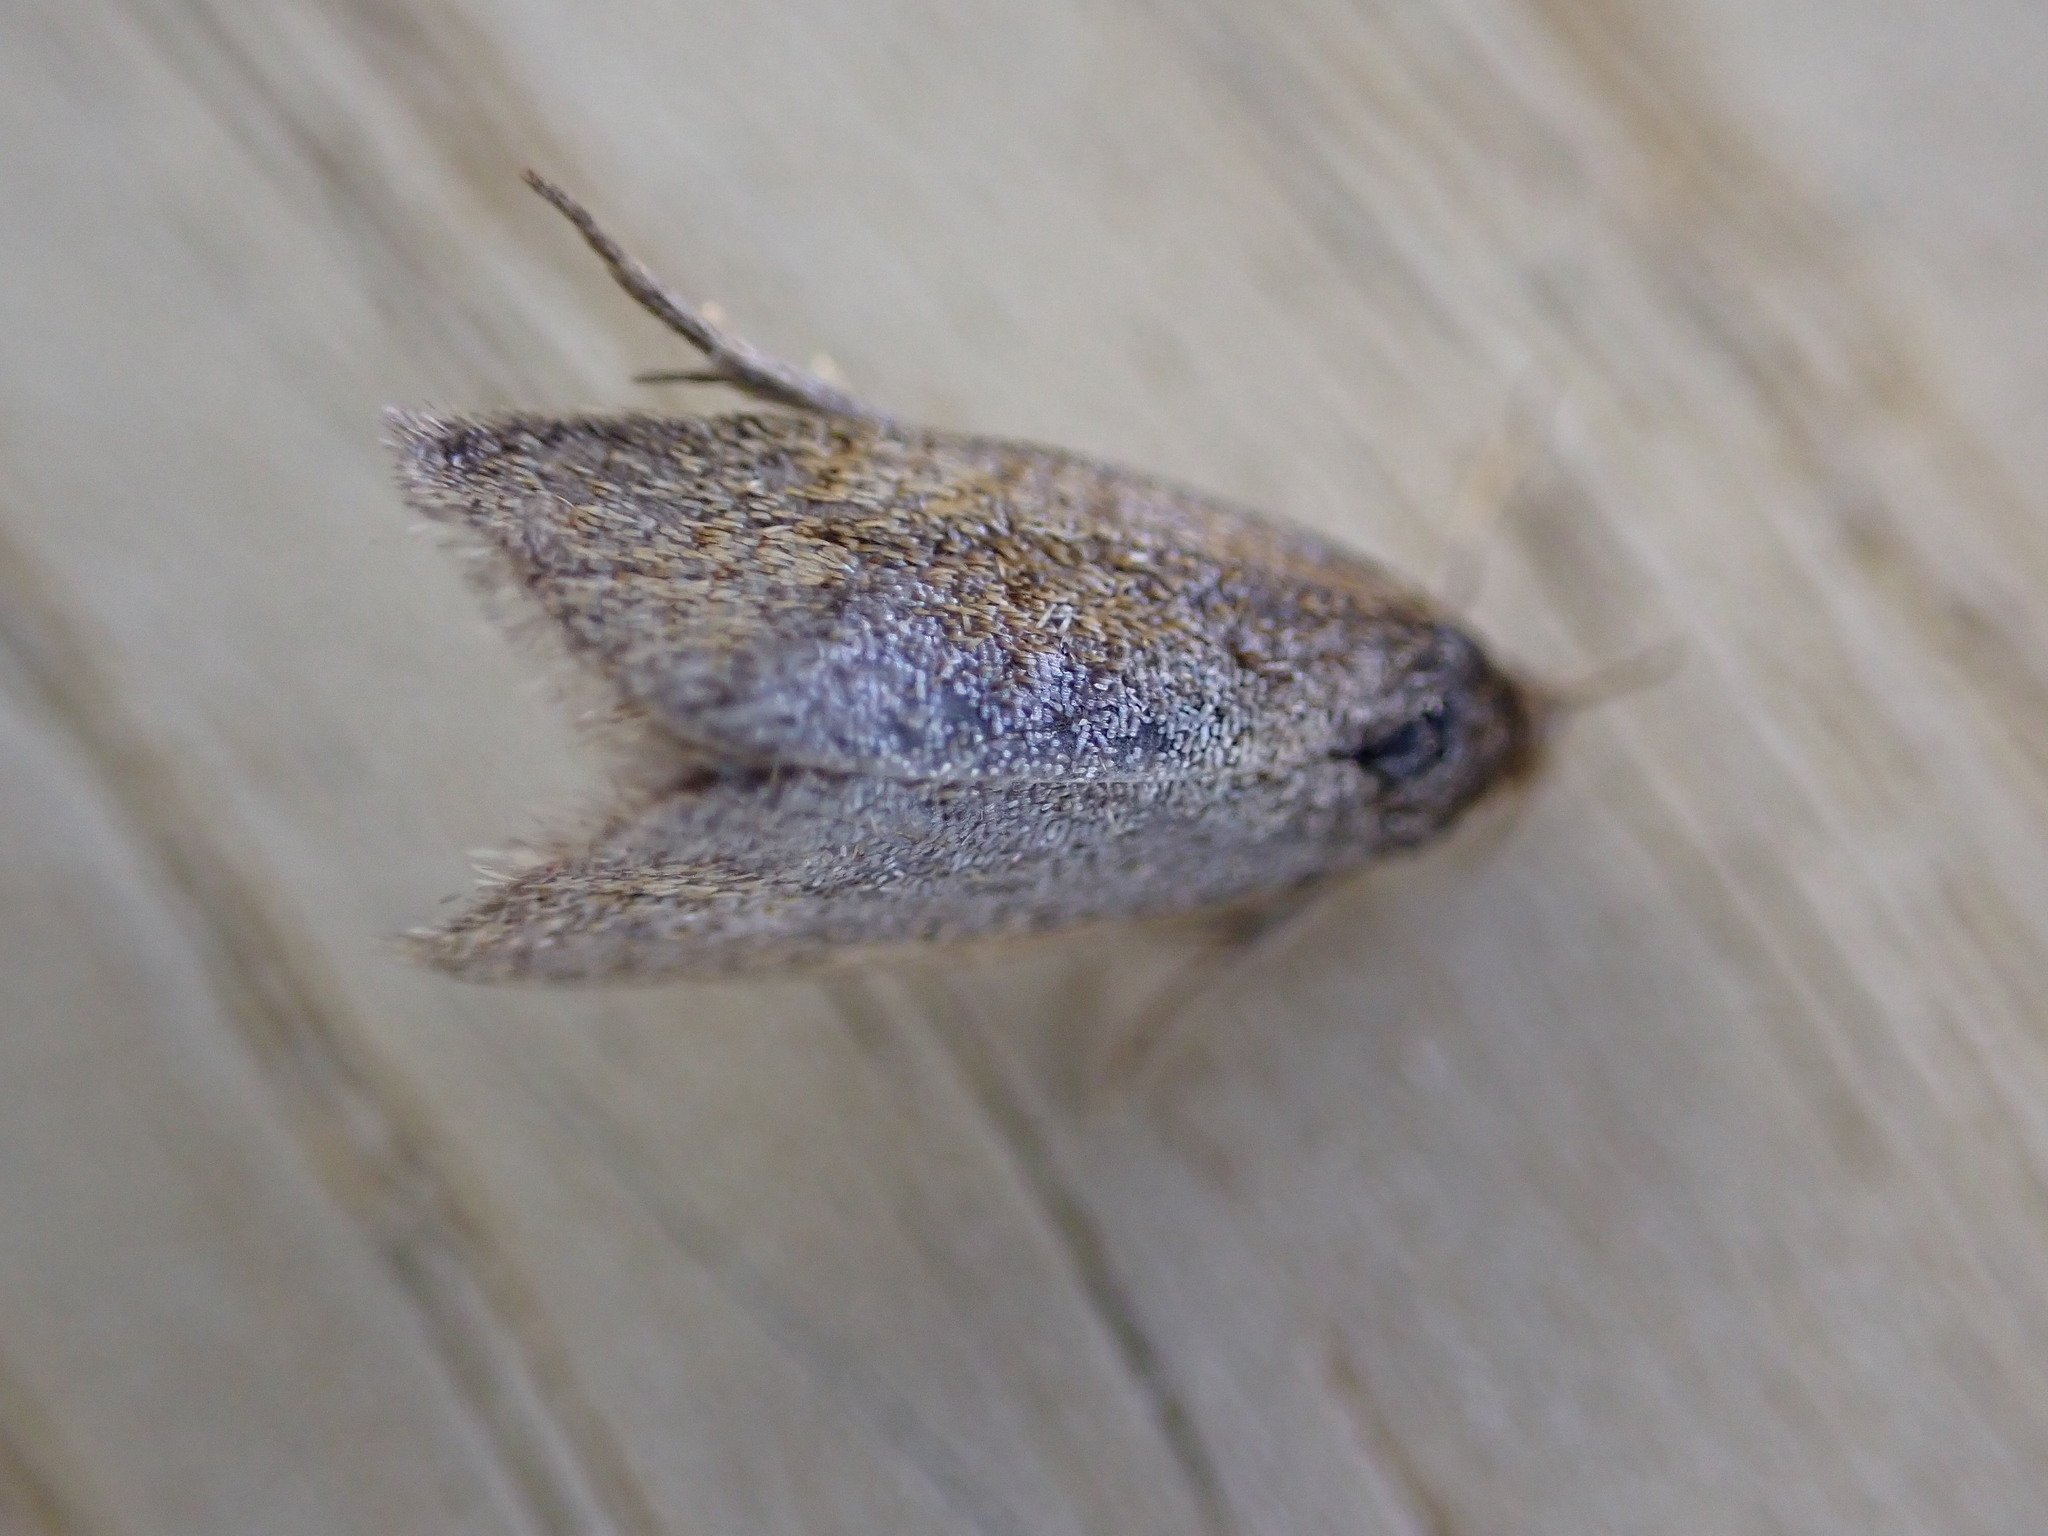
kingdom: Animalia
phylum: Arthropoda
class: Insecta
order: Lepidoptera
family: Tortricidae
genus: Clepsis
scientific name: Clepsis senecionana
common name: Obscure tortrix
